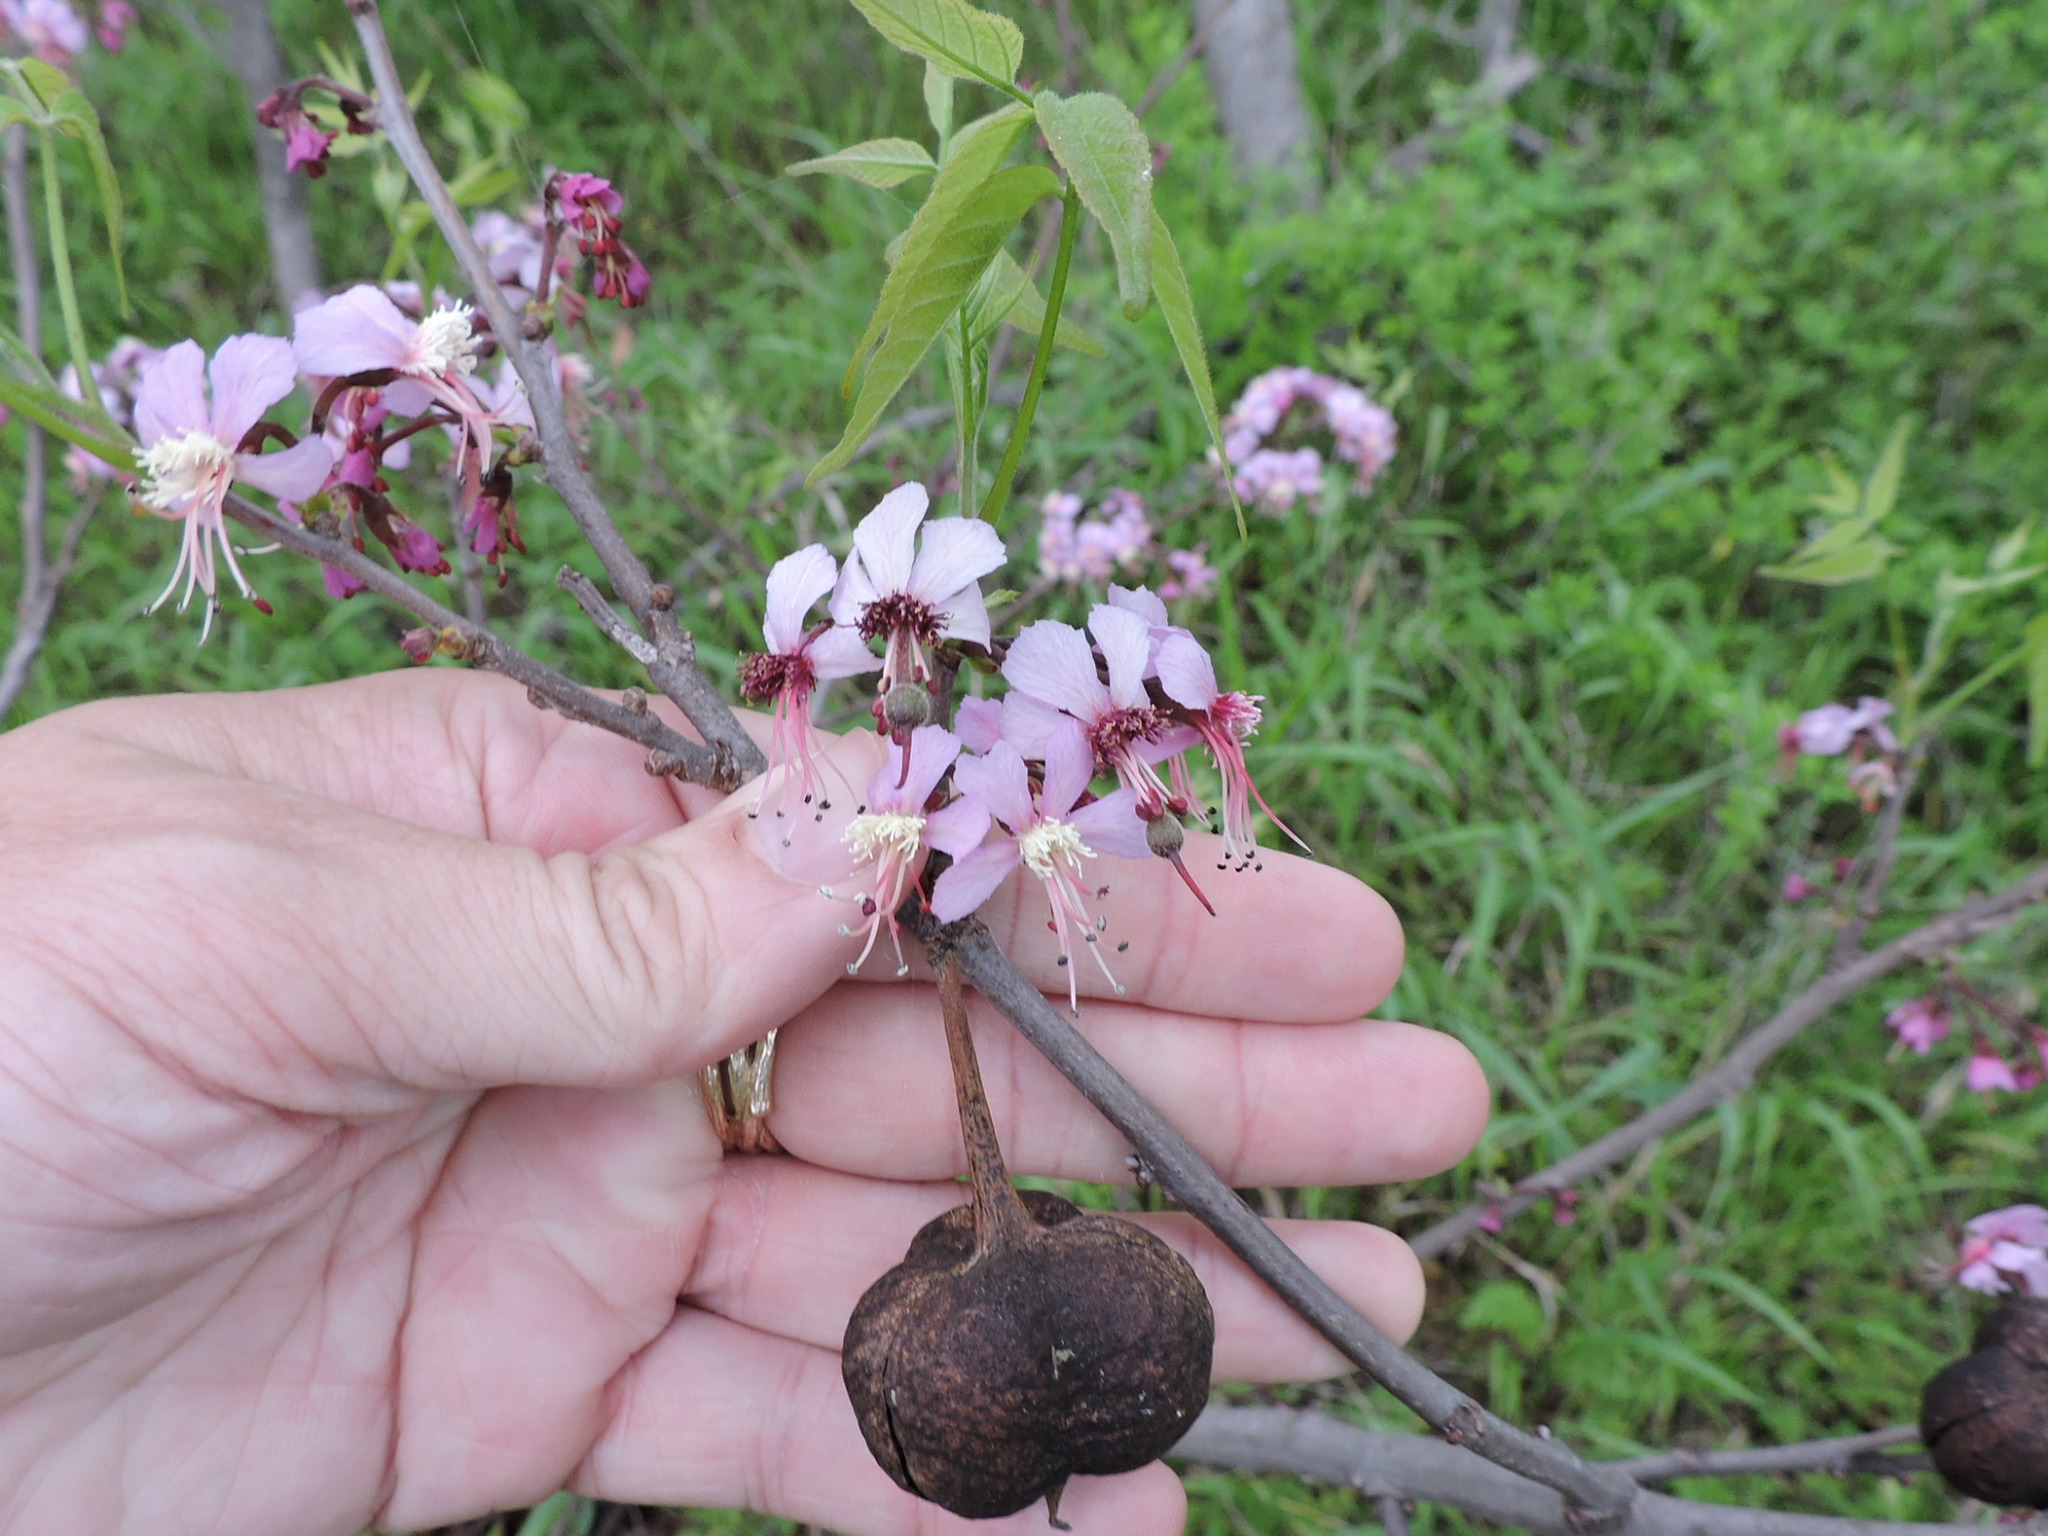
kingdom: Plantae
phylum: Tracheophyta
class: Magnoliopsida
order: Sapindales
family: Sapindaceae
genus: Ungnadia
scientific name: Ungnadia speciosa
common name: Texas-buckeye
